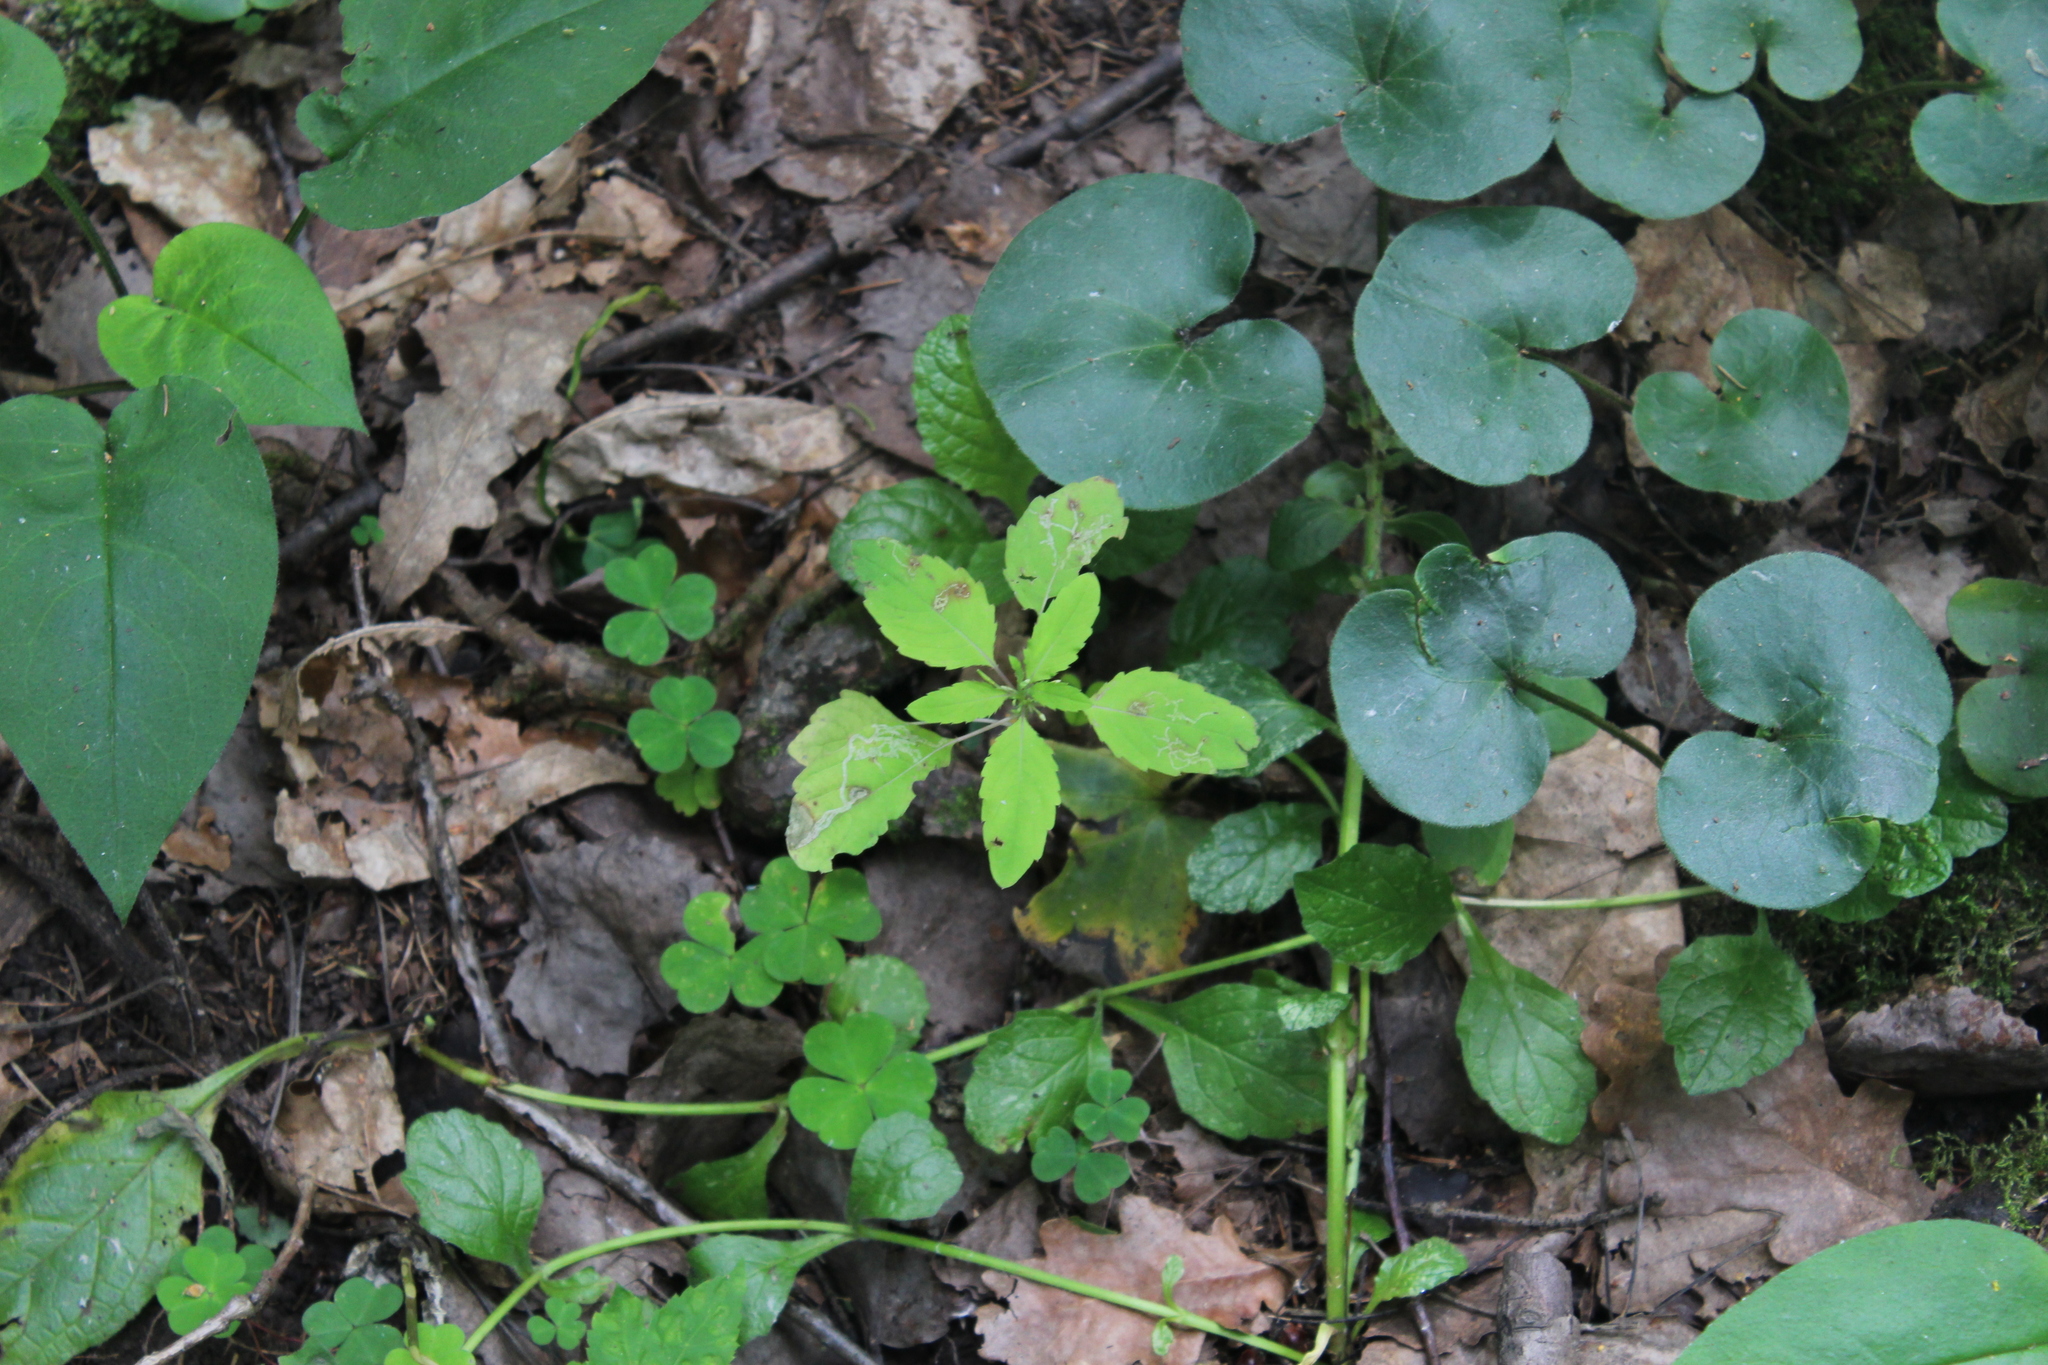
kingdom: Plantae
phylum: Tracheophyta
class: Magnoliopsida
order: Ericales
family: Balsaminaceae
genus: Impatiens
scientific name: Impatiens noli-tangere
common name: Touch-me-not balsam
